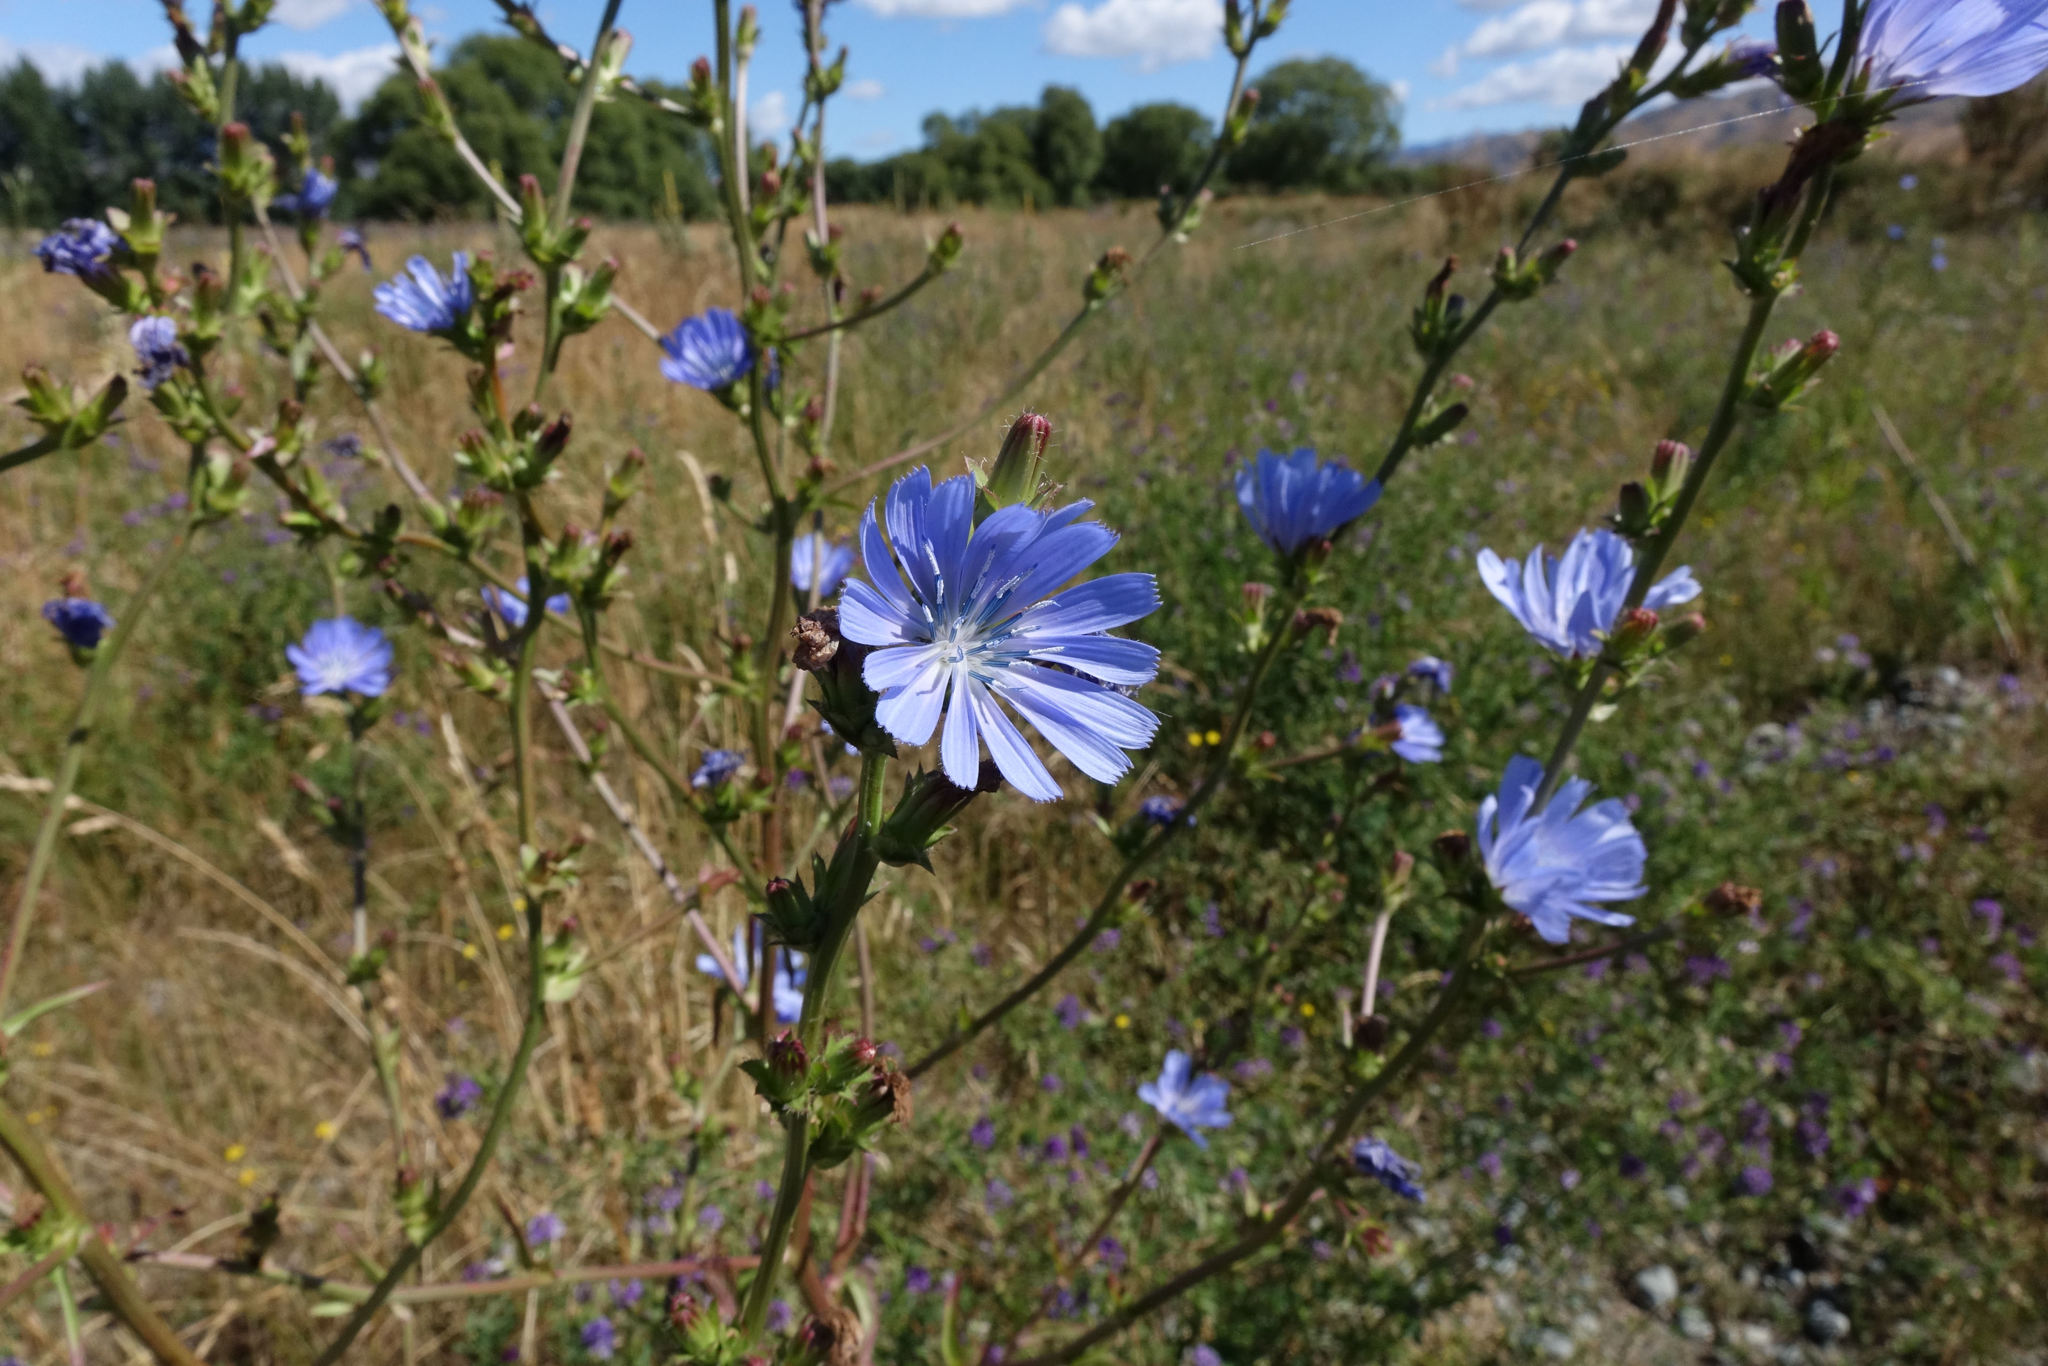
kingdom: Plantae
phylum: Tracheophyta
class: Magnoliopsida
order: Asterales
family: Asteraceae
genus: Cichorium
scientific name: Cichorium intybus
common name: Chicory
